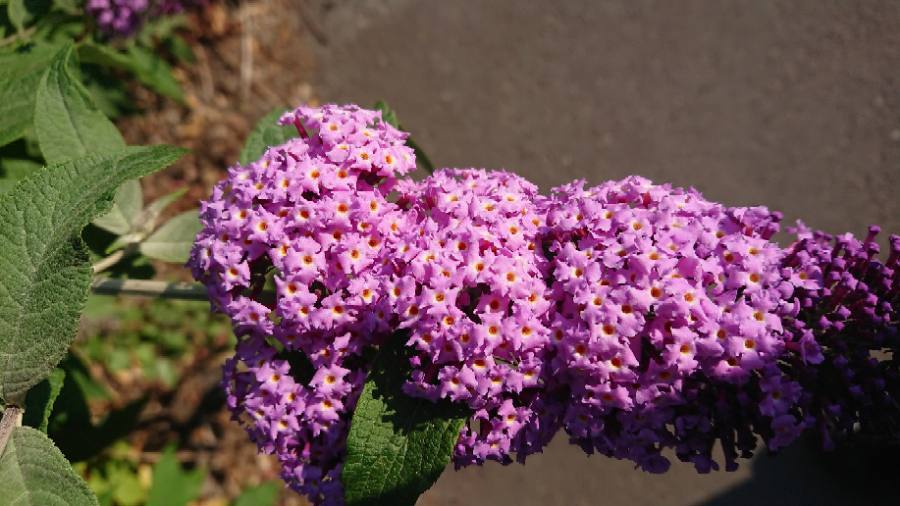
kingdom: Plantae
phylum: Tracheophyta
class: Magnoliopsida
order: Lamiales
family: Scrophulariaceae
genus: Buddleja
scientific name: Buddleja davidii
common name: Butterfly-bush
